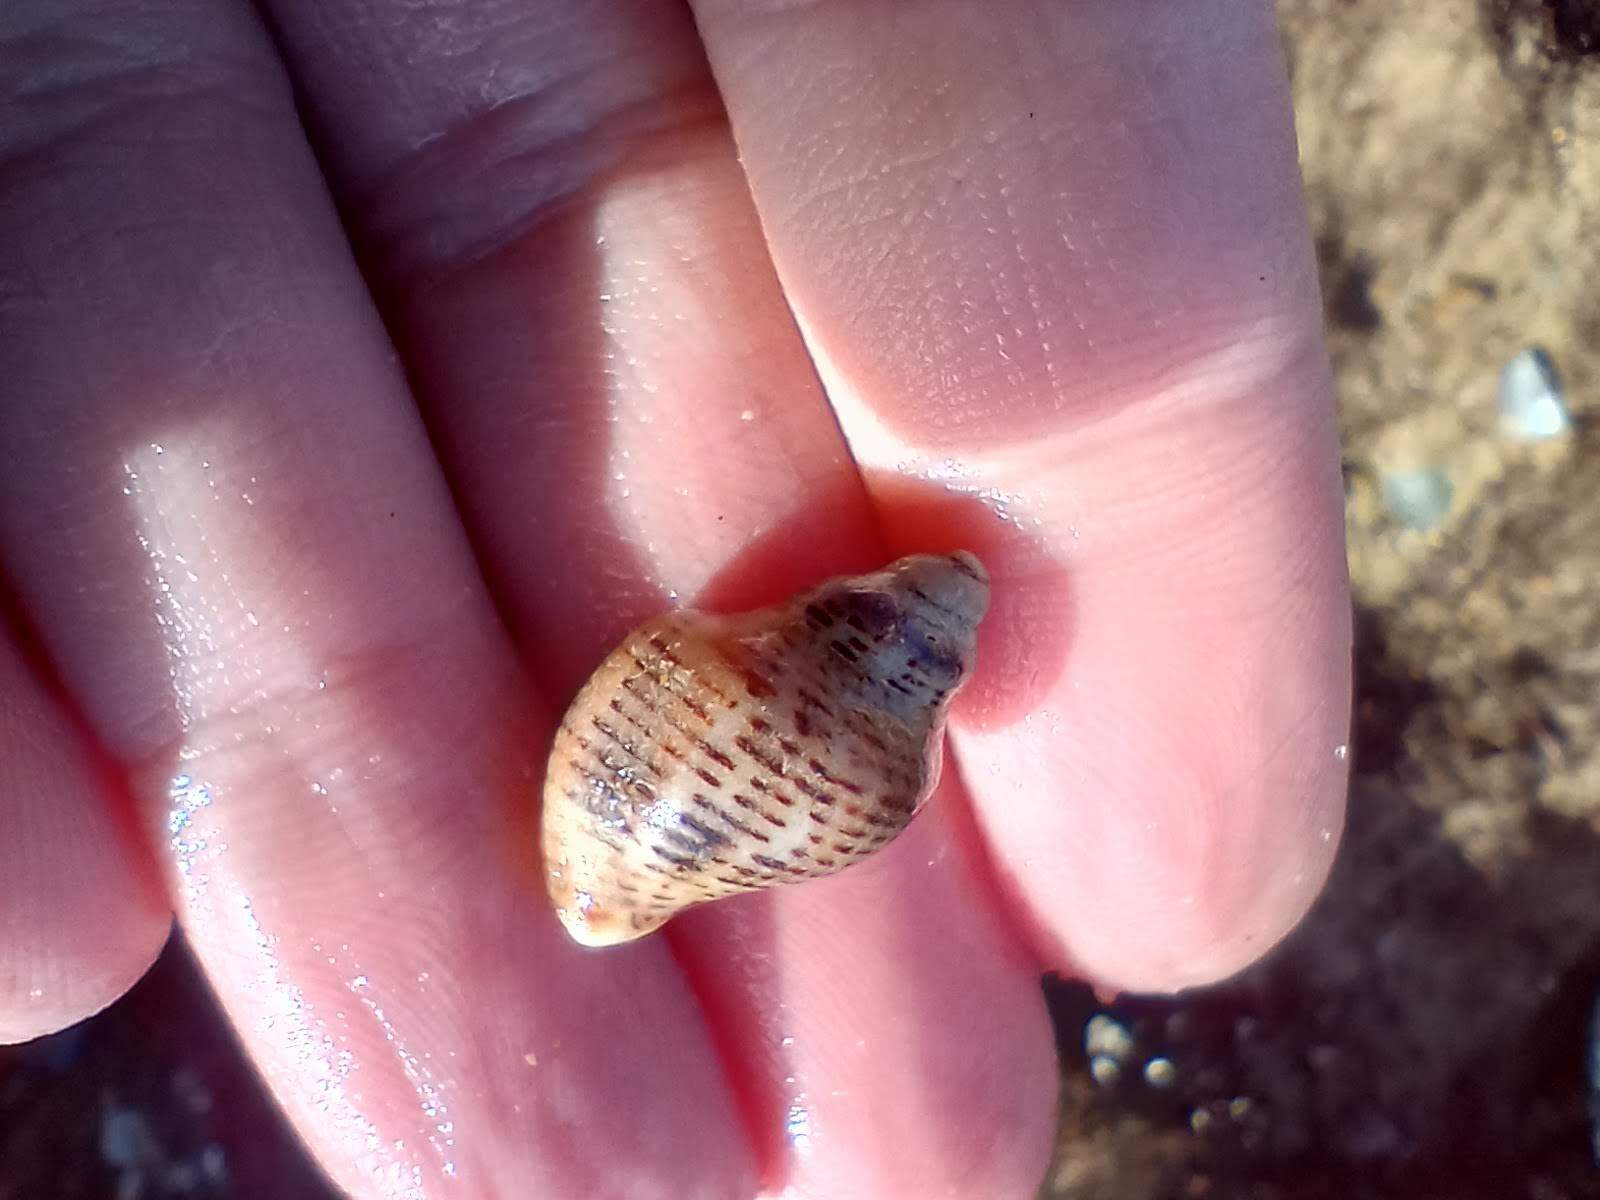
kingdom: Animalia
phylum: Mollusca
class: Gastropoda
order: Neogastropoda
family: Muricidae
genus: Acanthinucella
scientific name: Acanthinucella spirata
